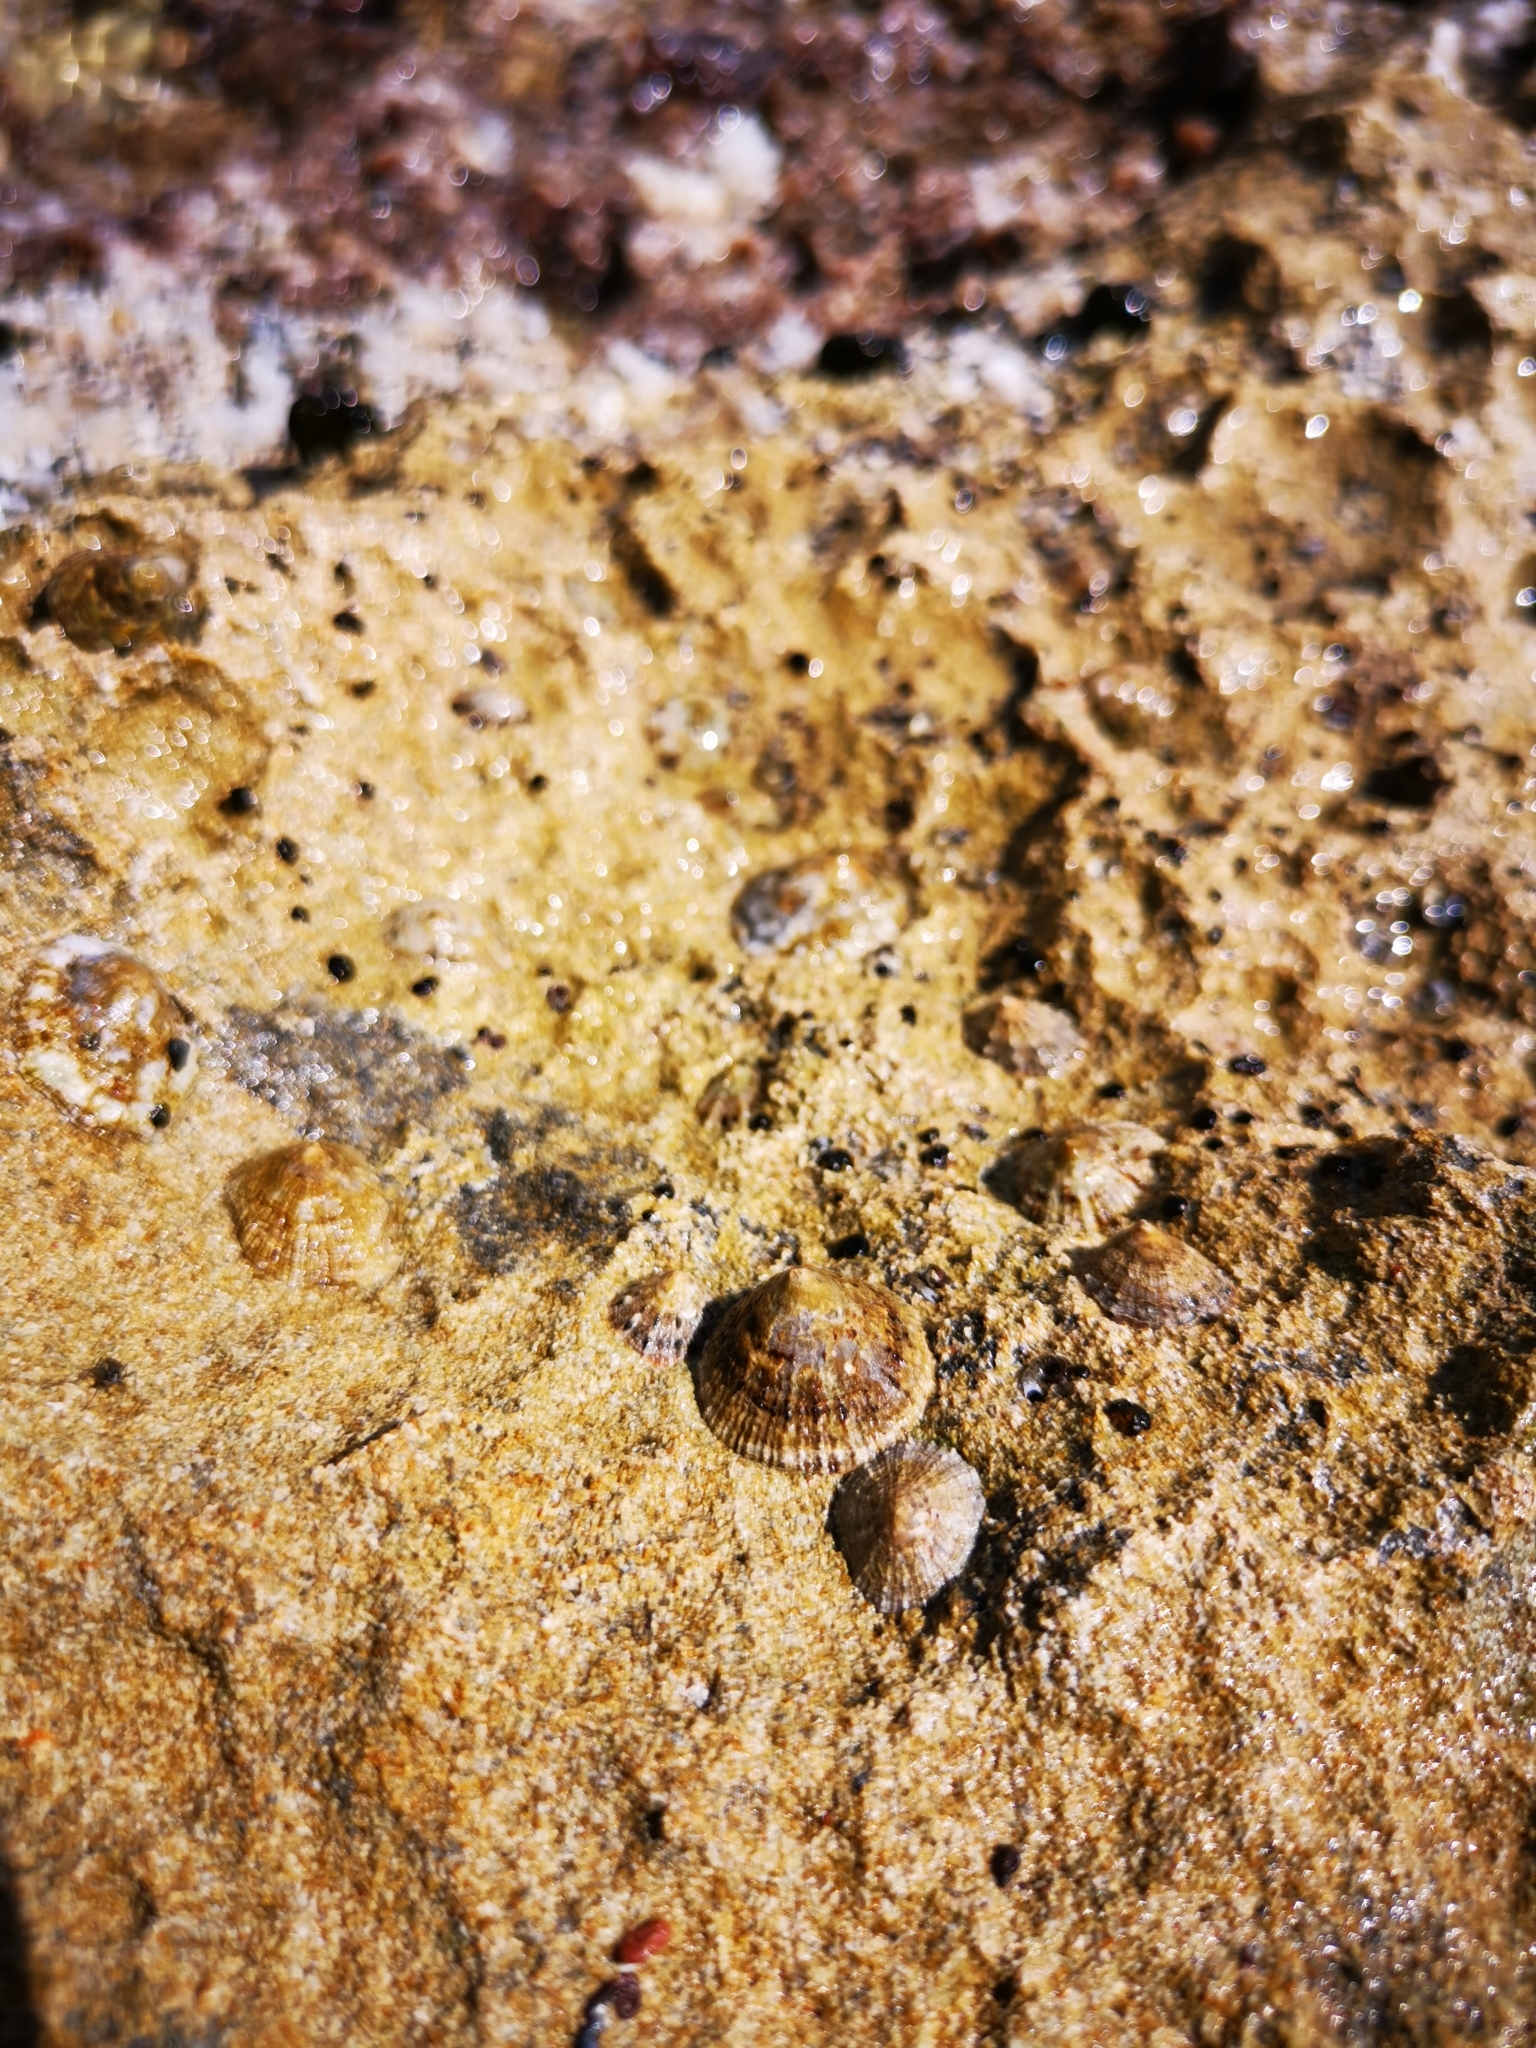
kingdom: Animalia
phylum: Mollusca
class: Gastropoda
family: Patellidae
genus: Patella
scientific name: Patella caerulea
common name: Mediterranean limpet
